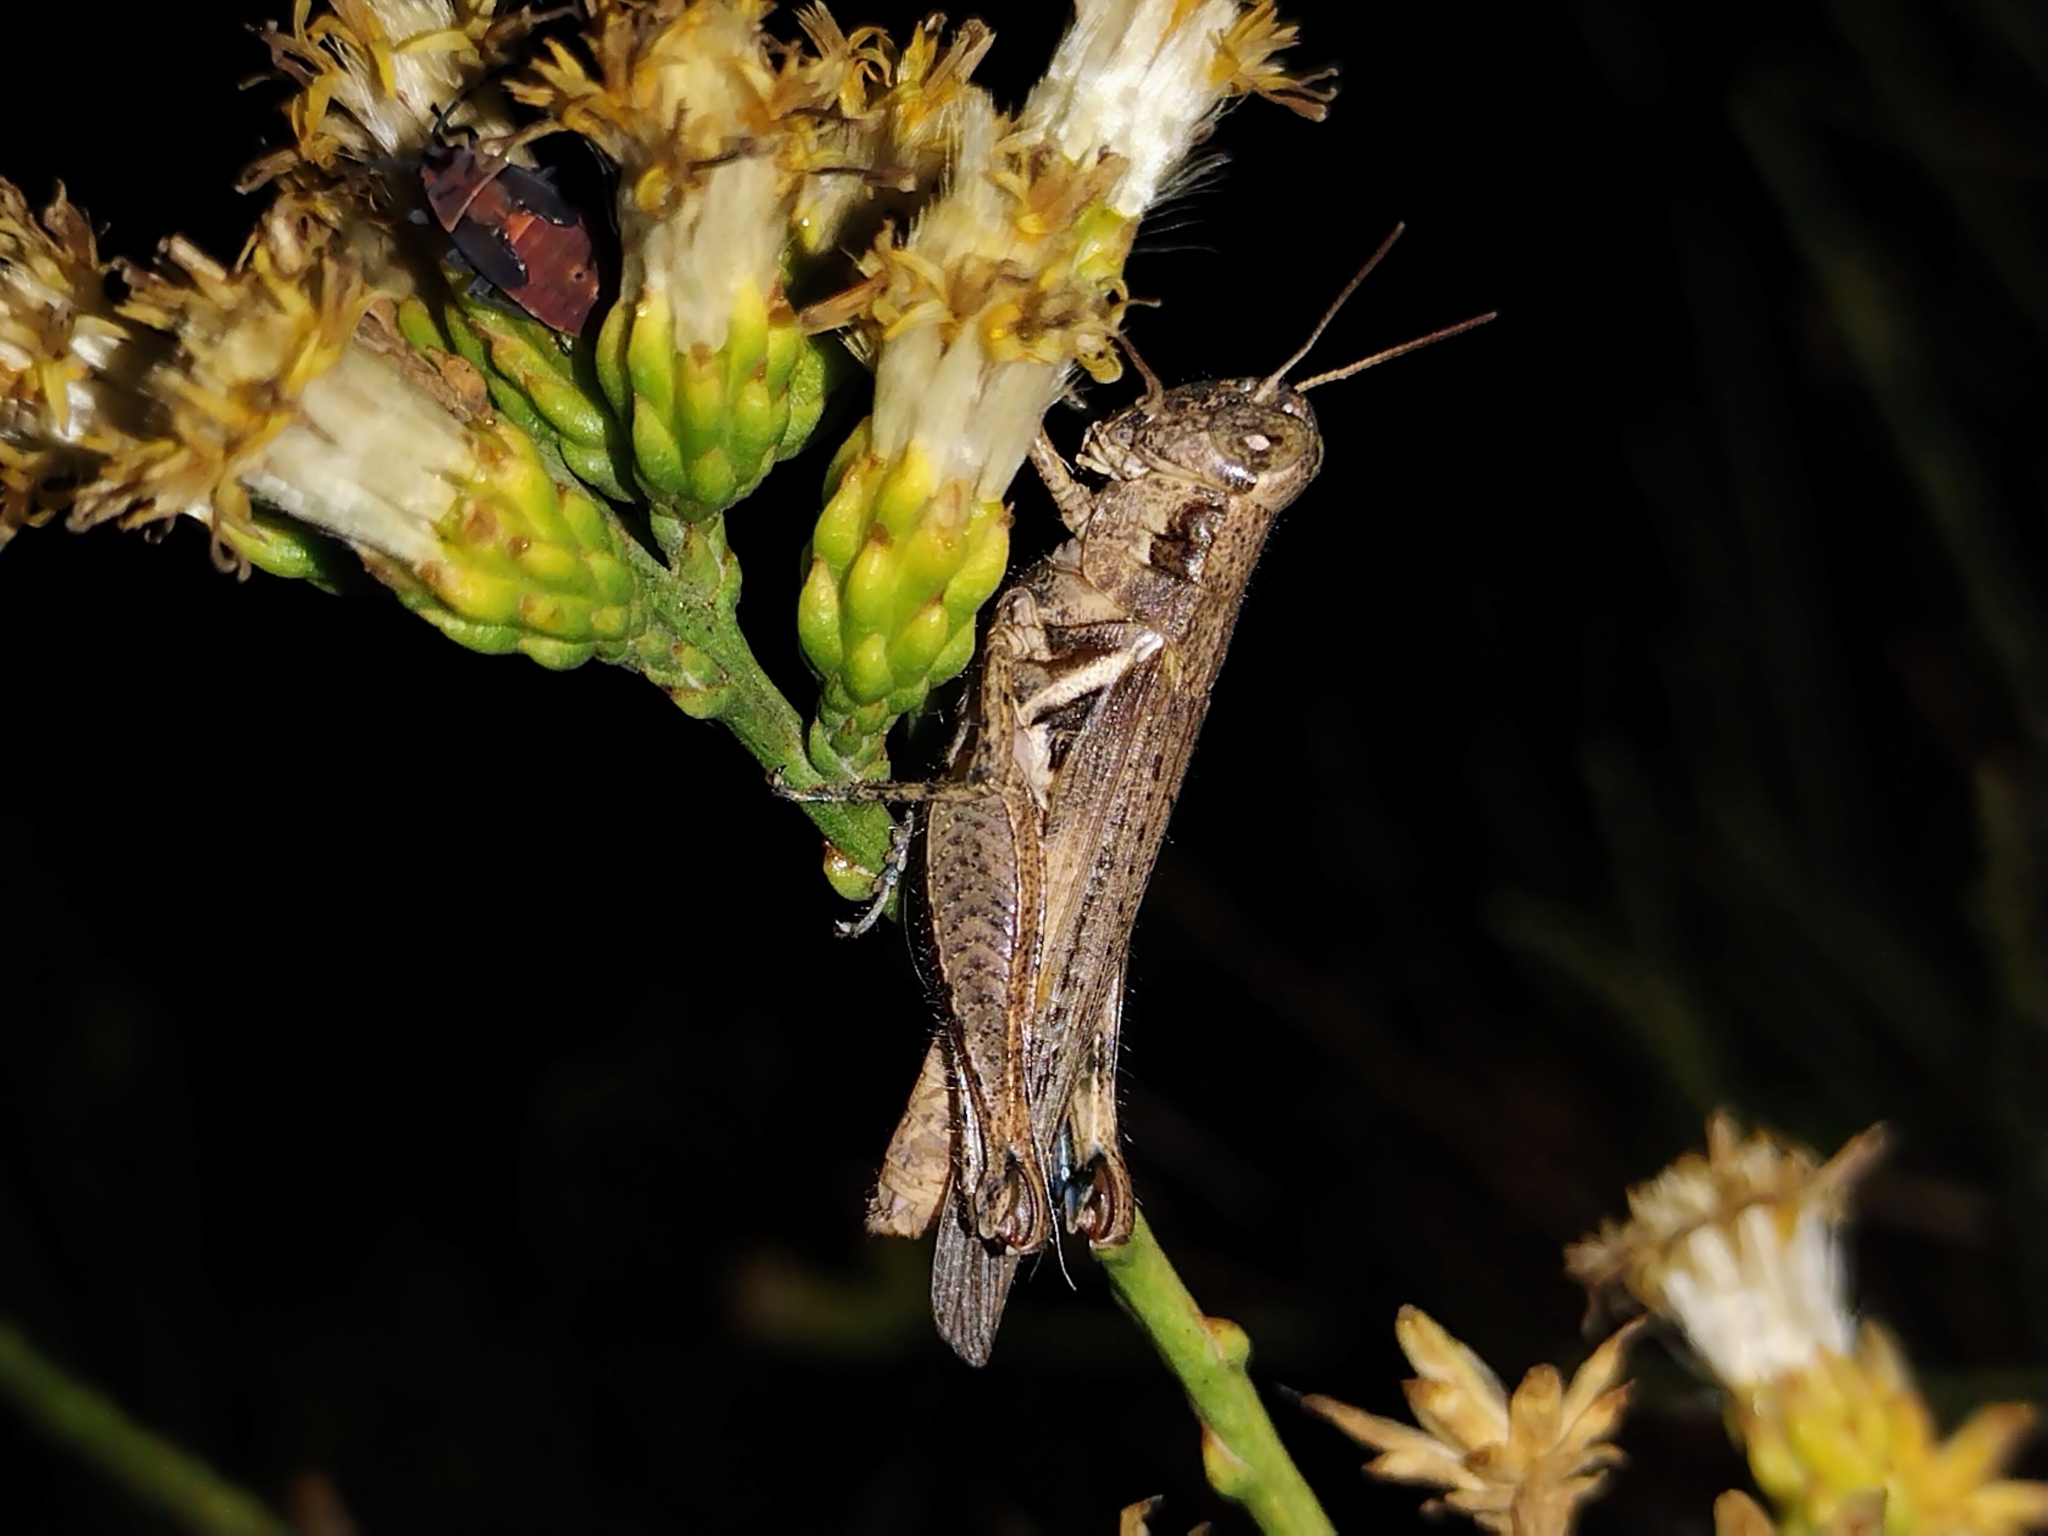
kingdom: Animalia
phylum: Arthropoda
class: Insecta
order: Orthoptera
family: Acrididae
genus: Melanoplus
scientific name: Melanoplus cinereus
